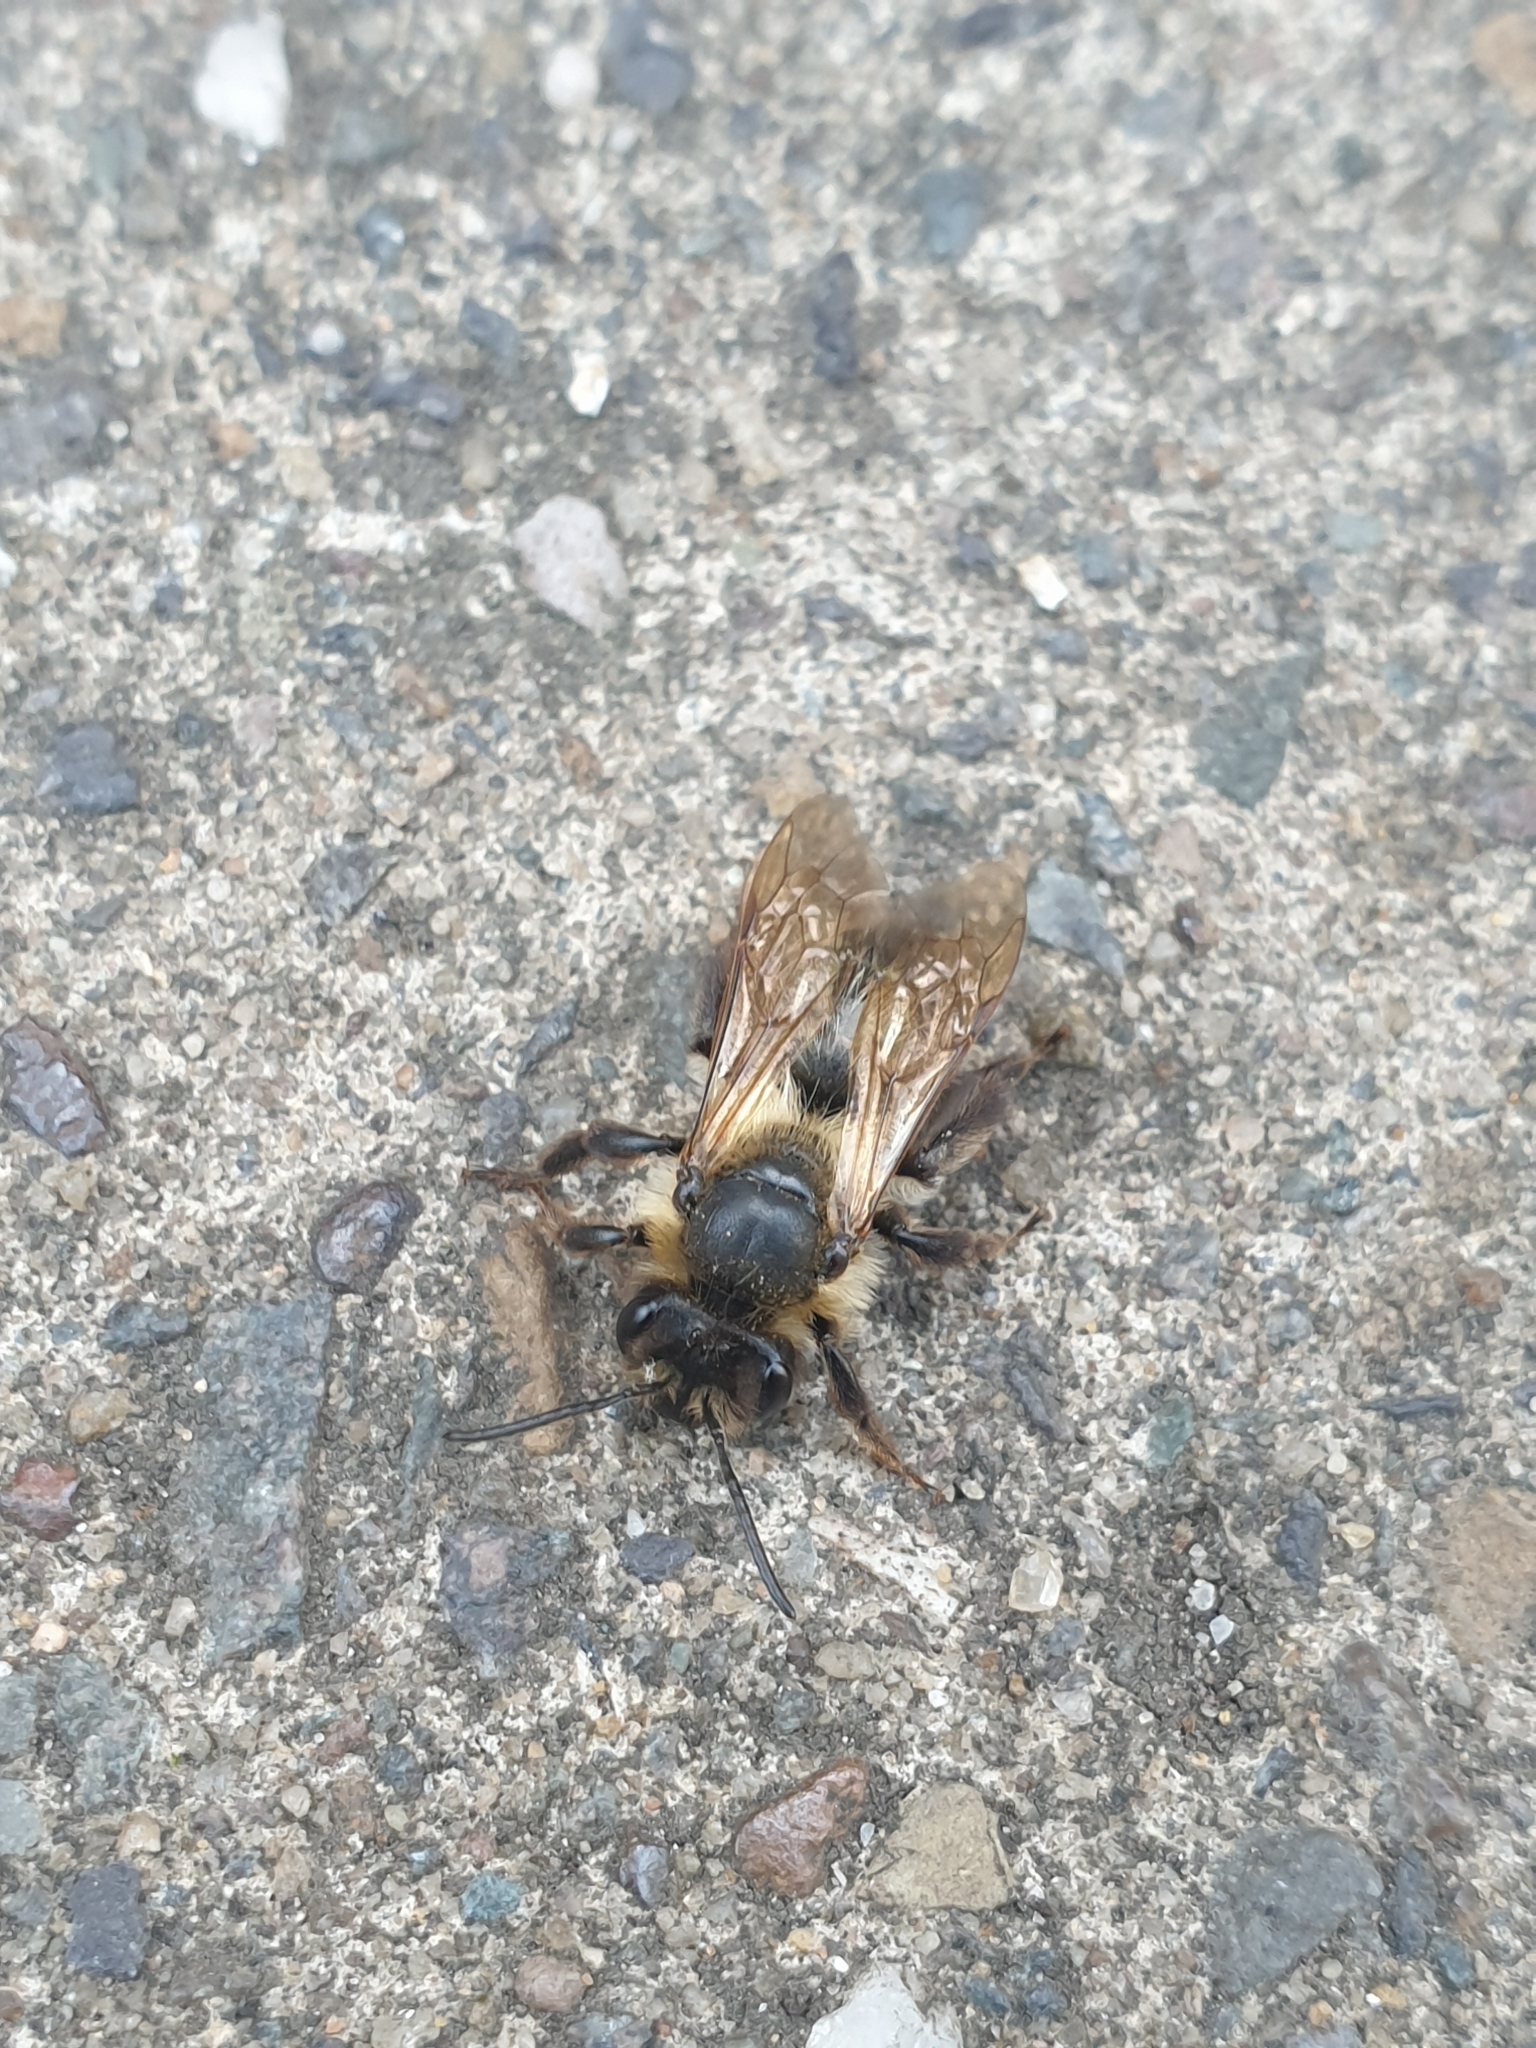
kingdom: Animalia
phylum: Arthropoda
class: Insecta
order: Hymenoptera
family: Andrenidae
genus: Andrena
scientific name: Andrena carantonica
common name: Chocolate mining bee
